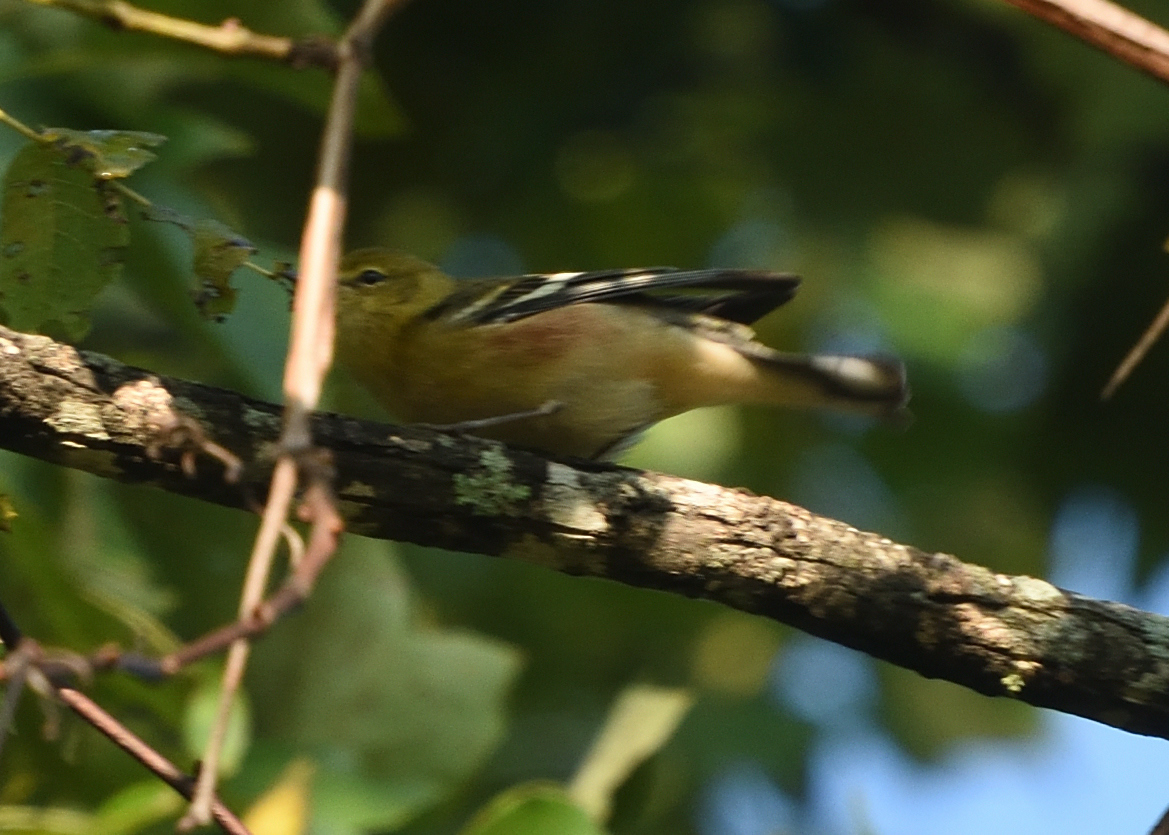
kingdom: Animalia
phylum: Chordata
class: Aves
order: Passeriformes
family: Parulidae
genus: Setophaga
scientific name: Setophaga castanea
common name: Bay-breasted warbler
